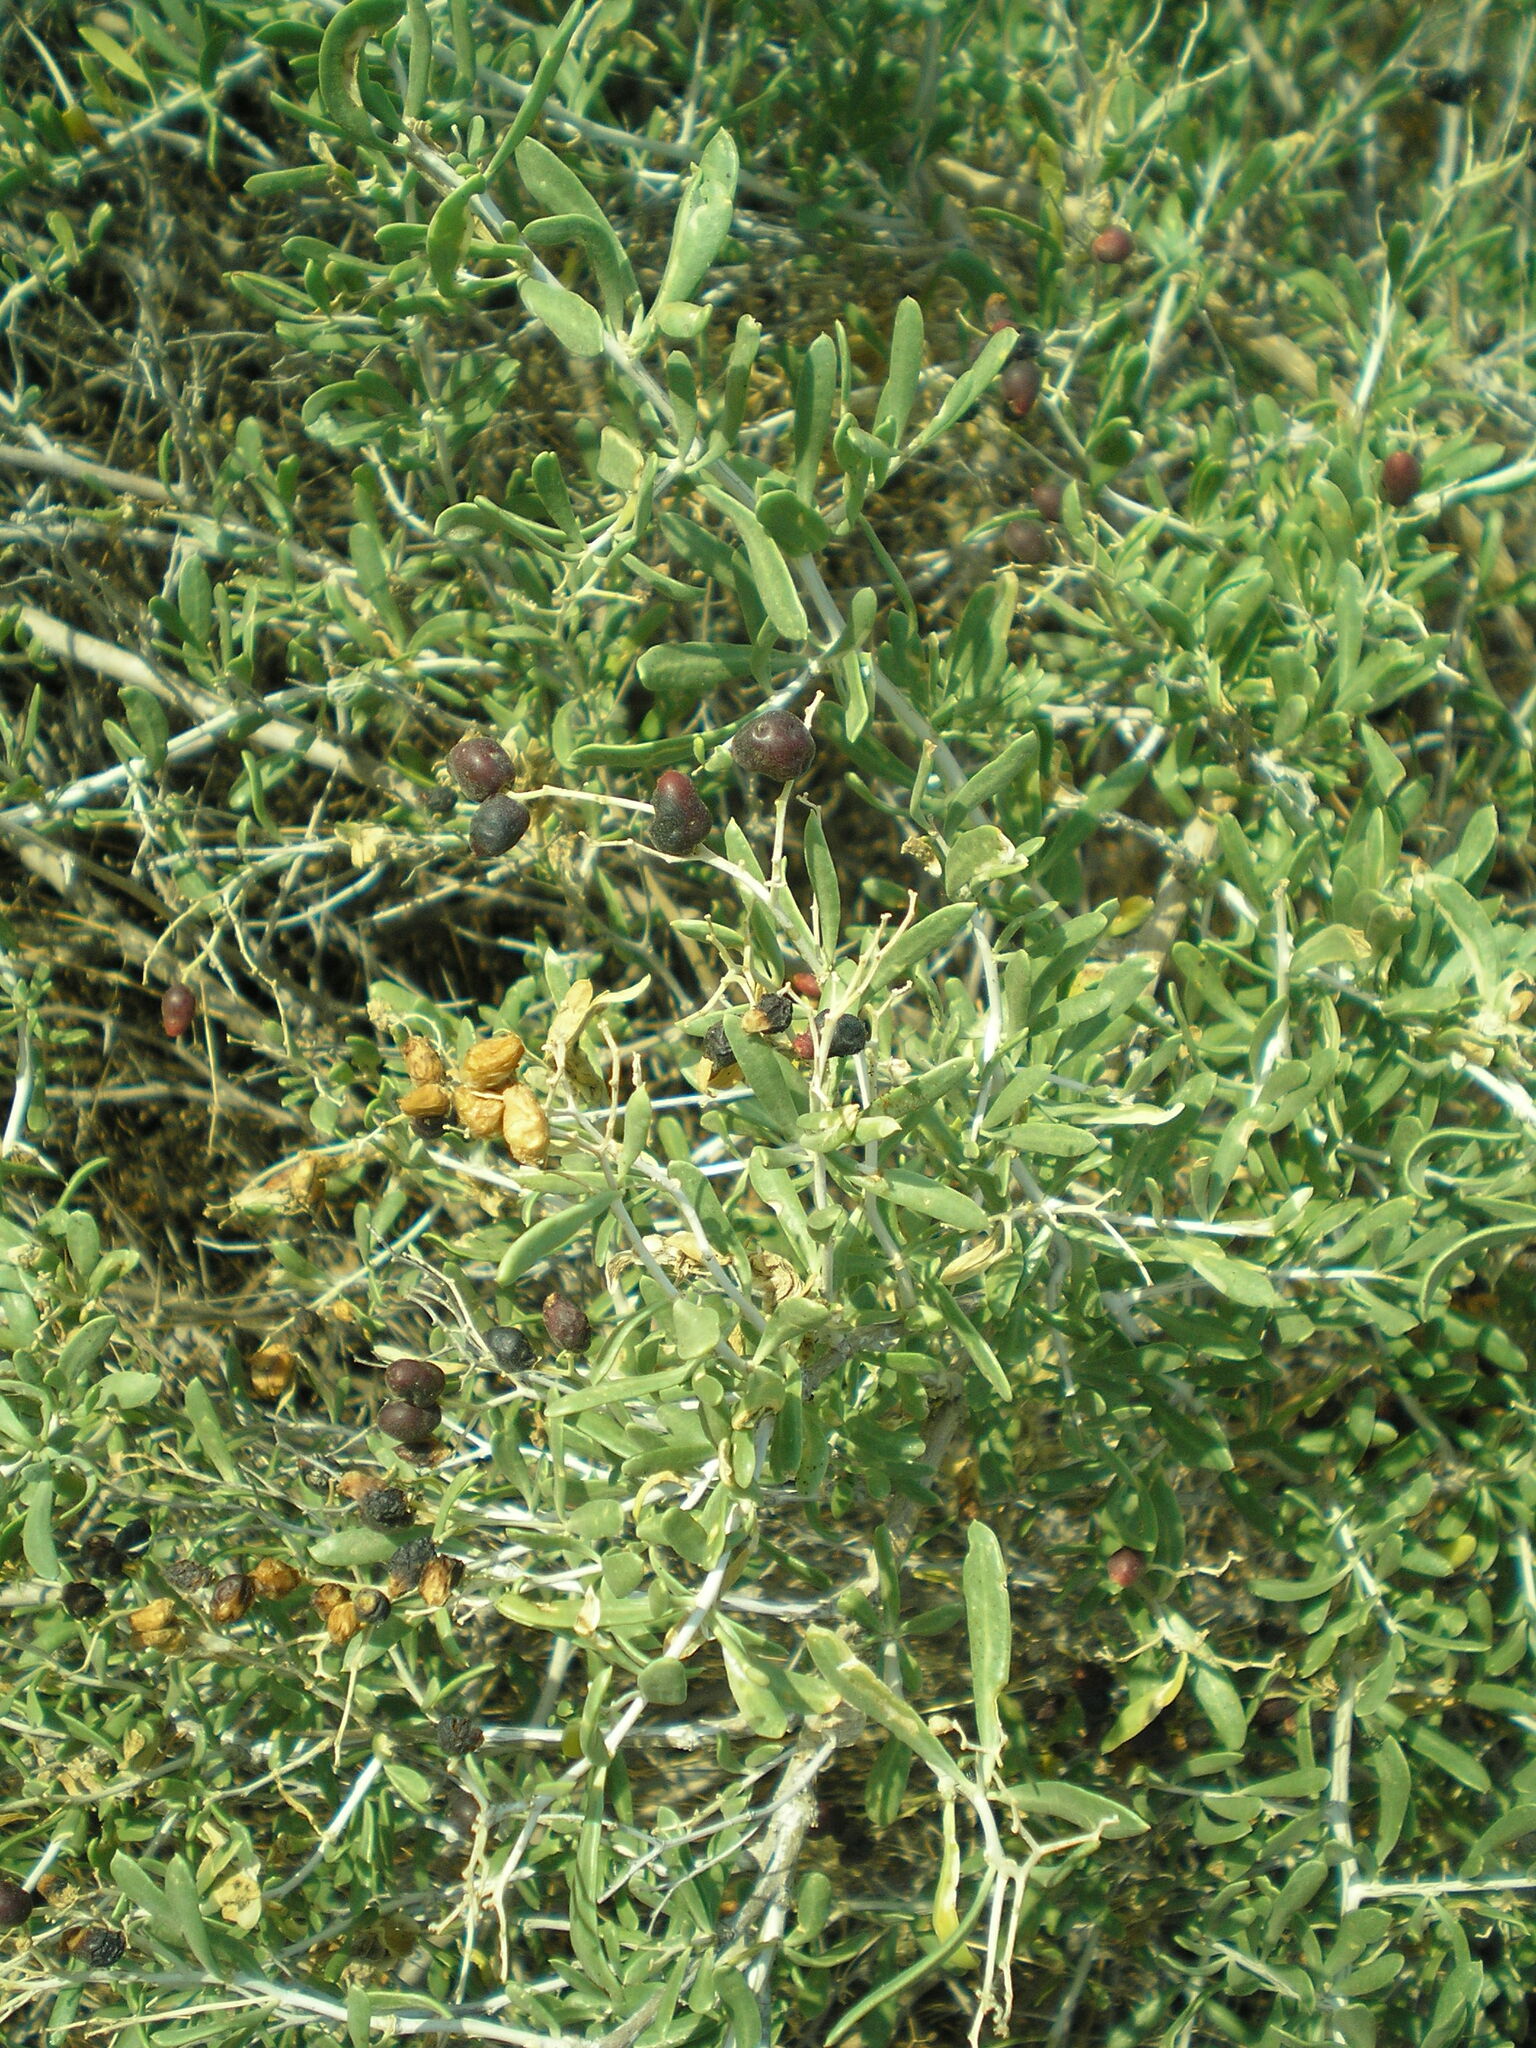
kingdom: Plantae
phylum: Tracheophyta
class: Magnoliopsida
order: Sapindales
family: Nitrariaceae
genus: Nitraria
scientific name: Nitraria schoberi
